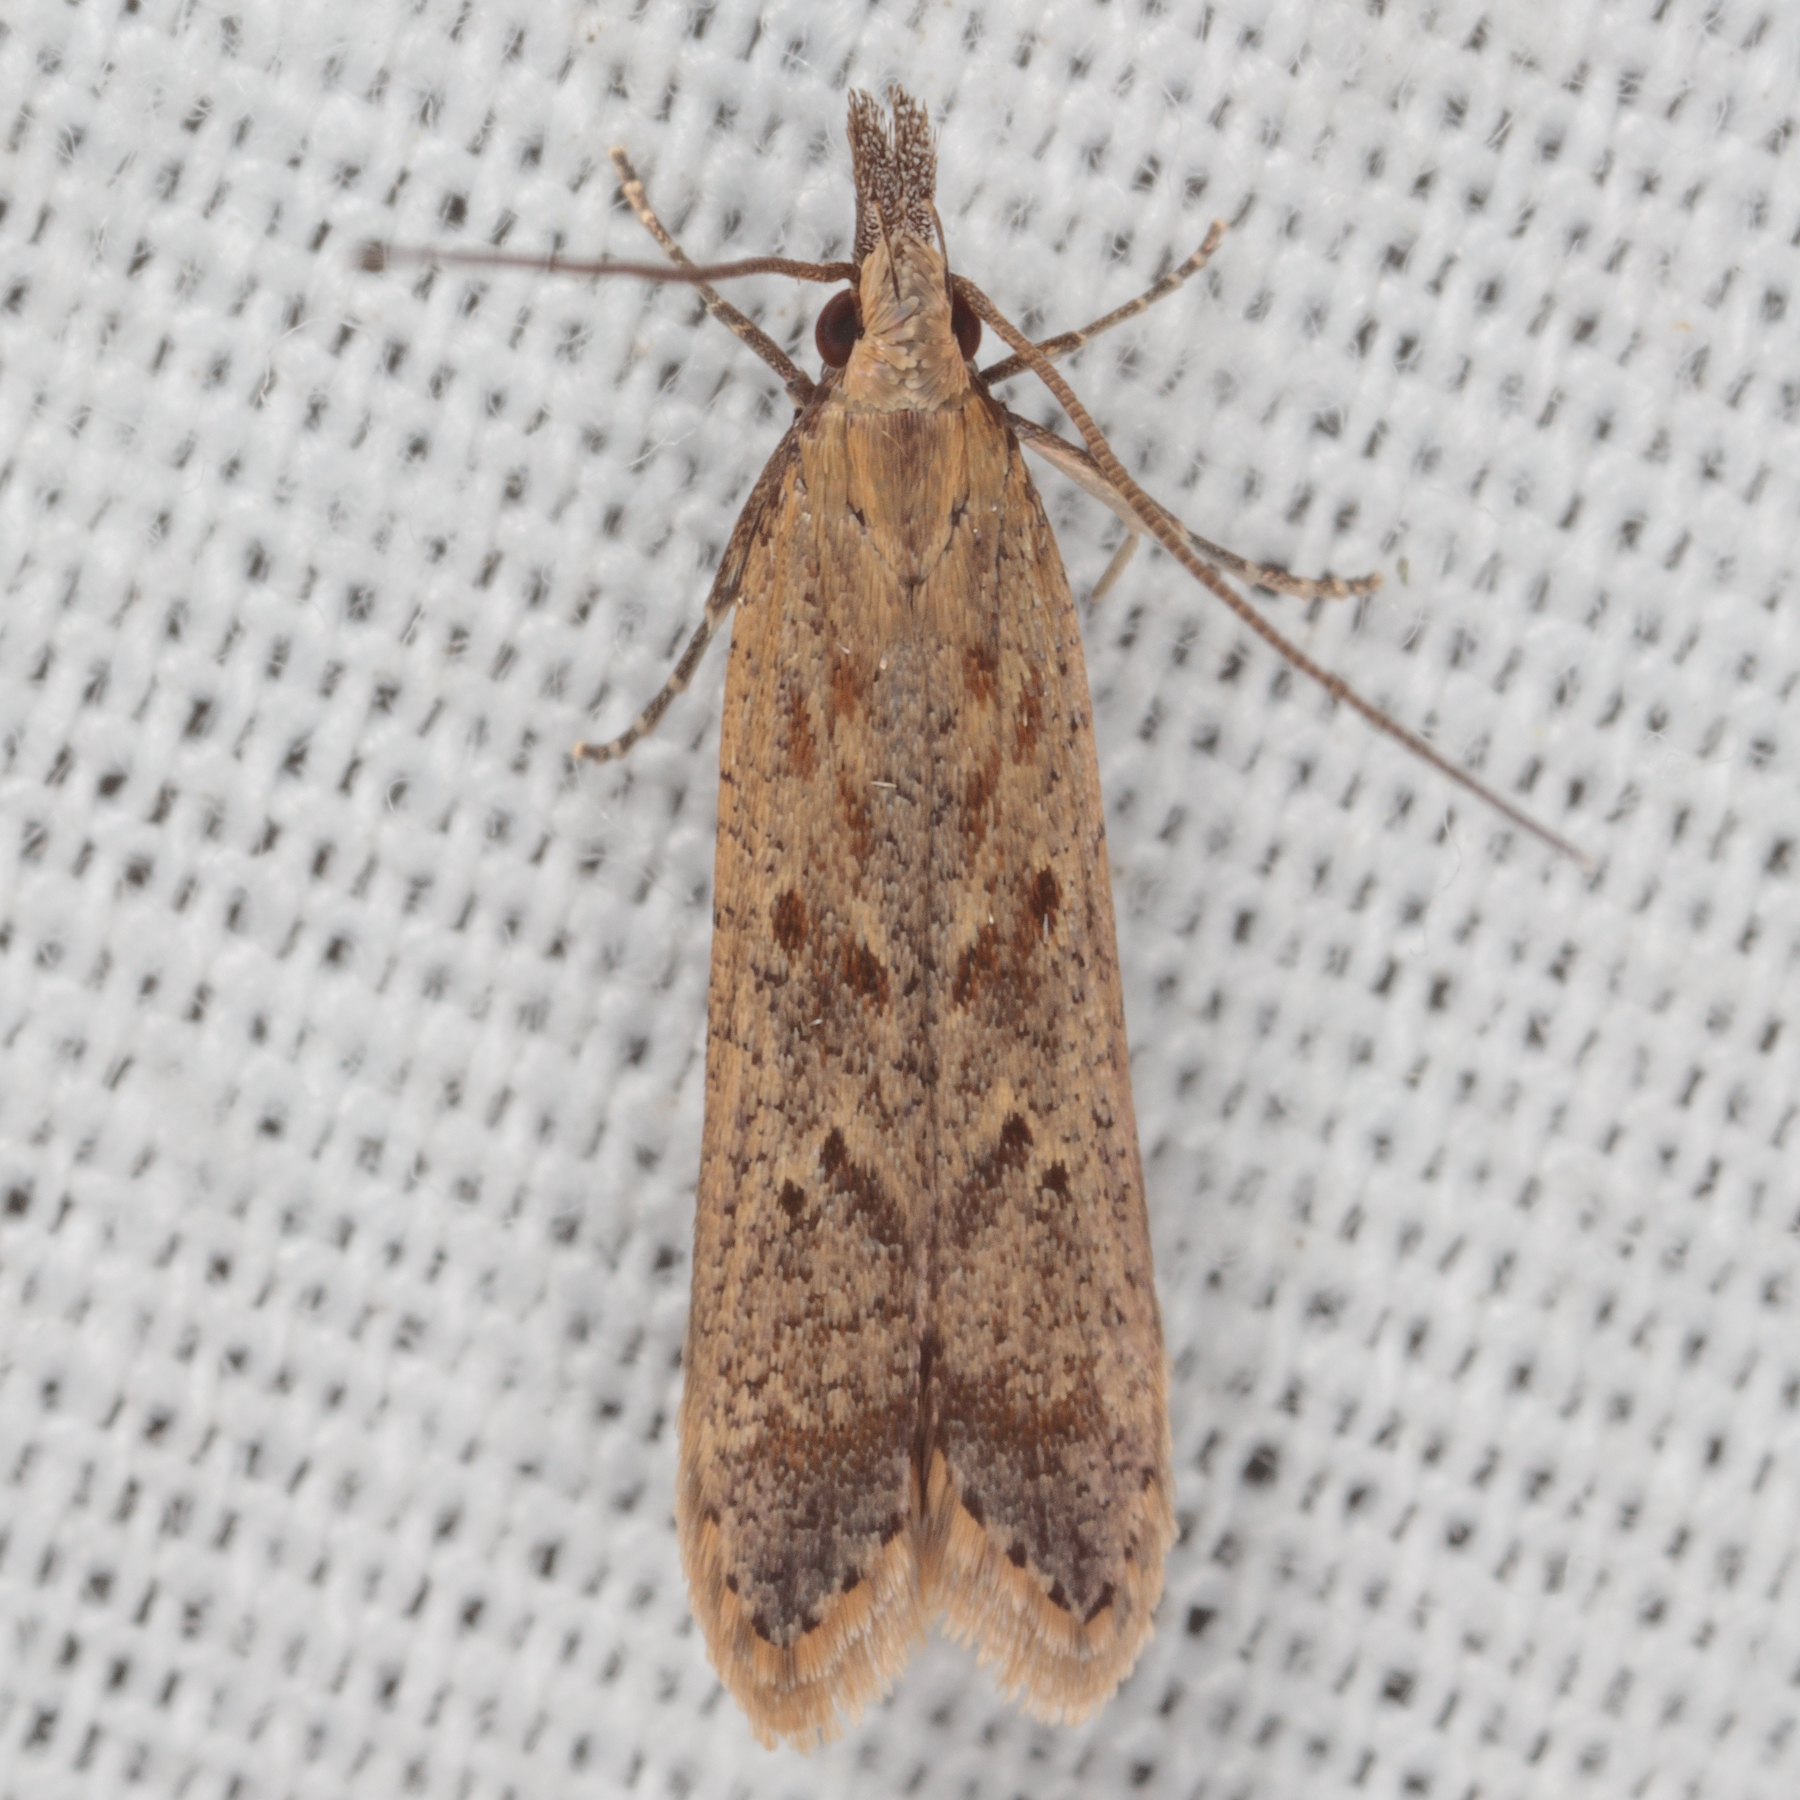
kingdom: Animalia
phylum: Arthropoda
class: Insecta
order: Lepidoptera
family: Gelechiidae
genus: Dichomeris
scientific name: Dichomeris ligulella
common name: Moth
